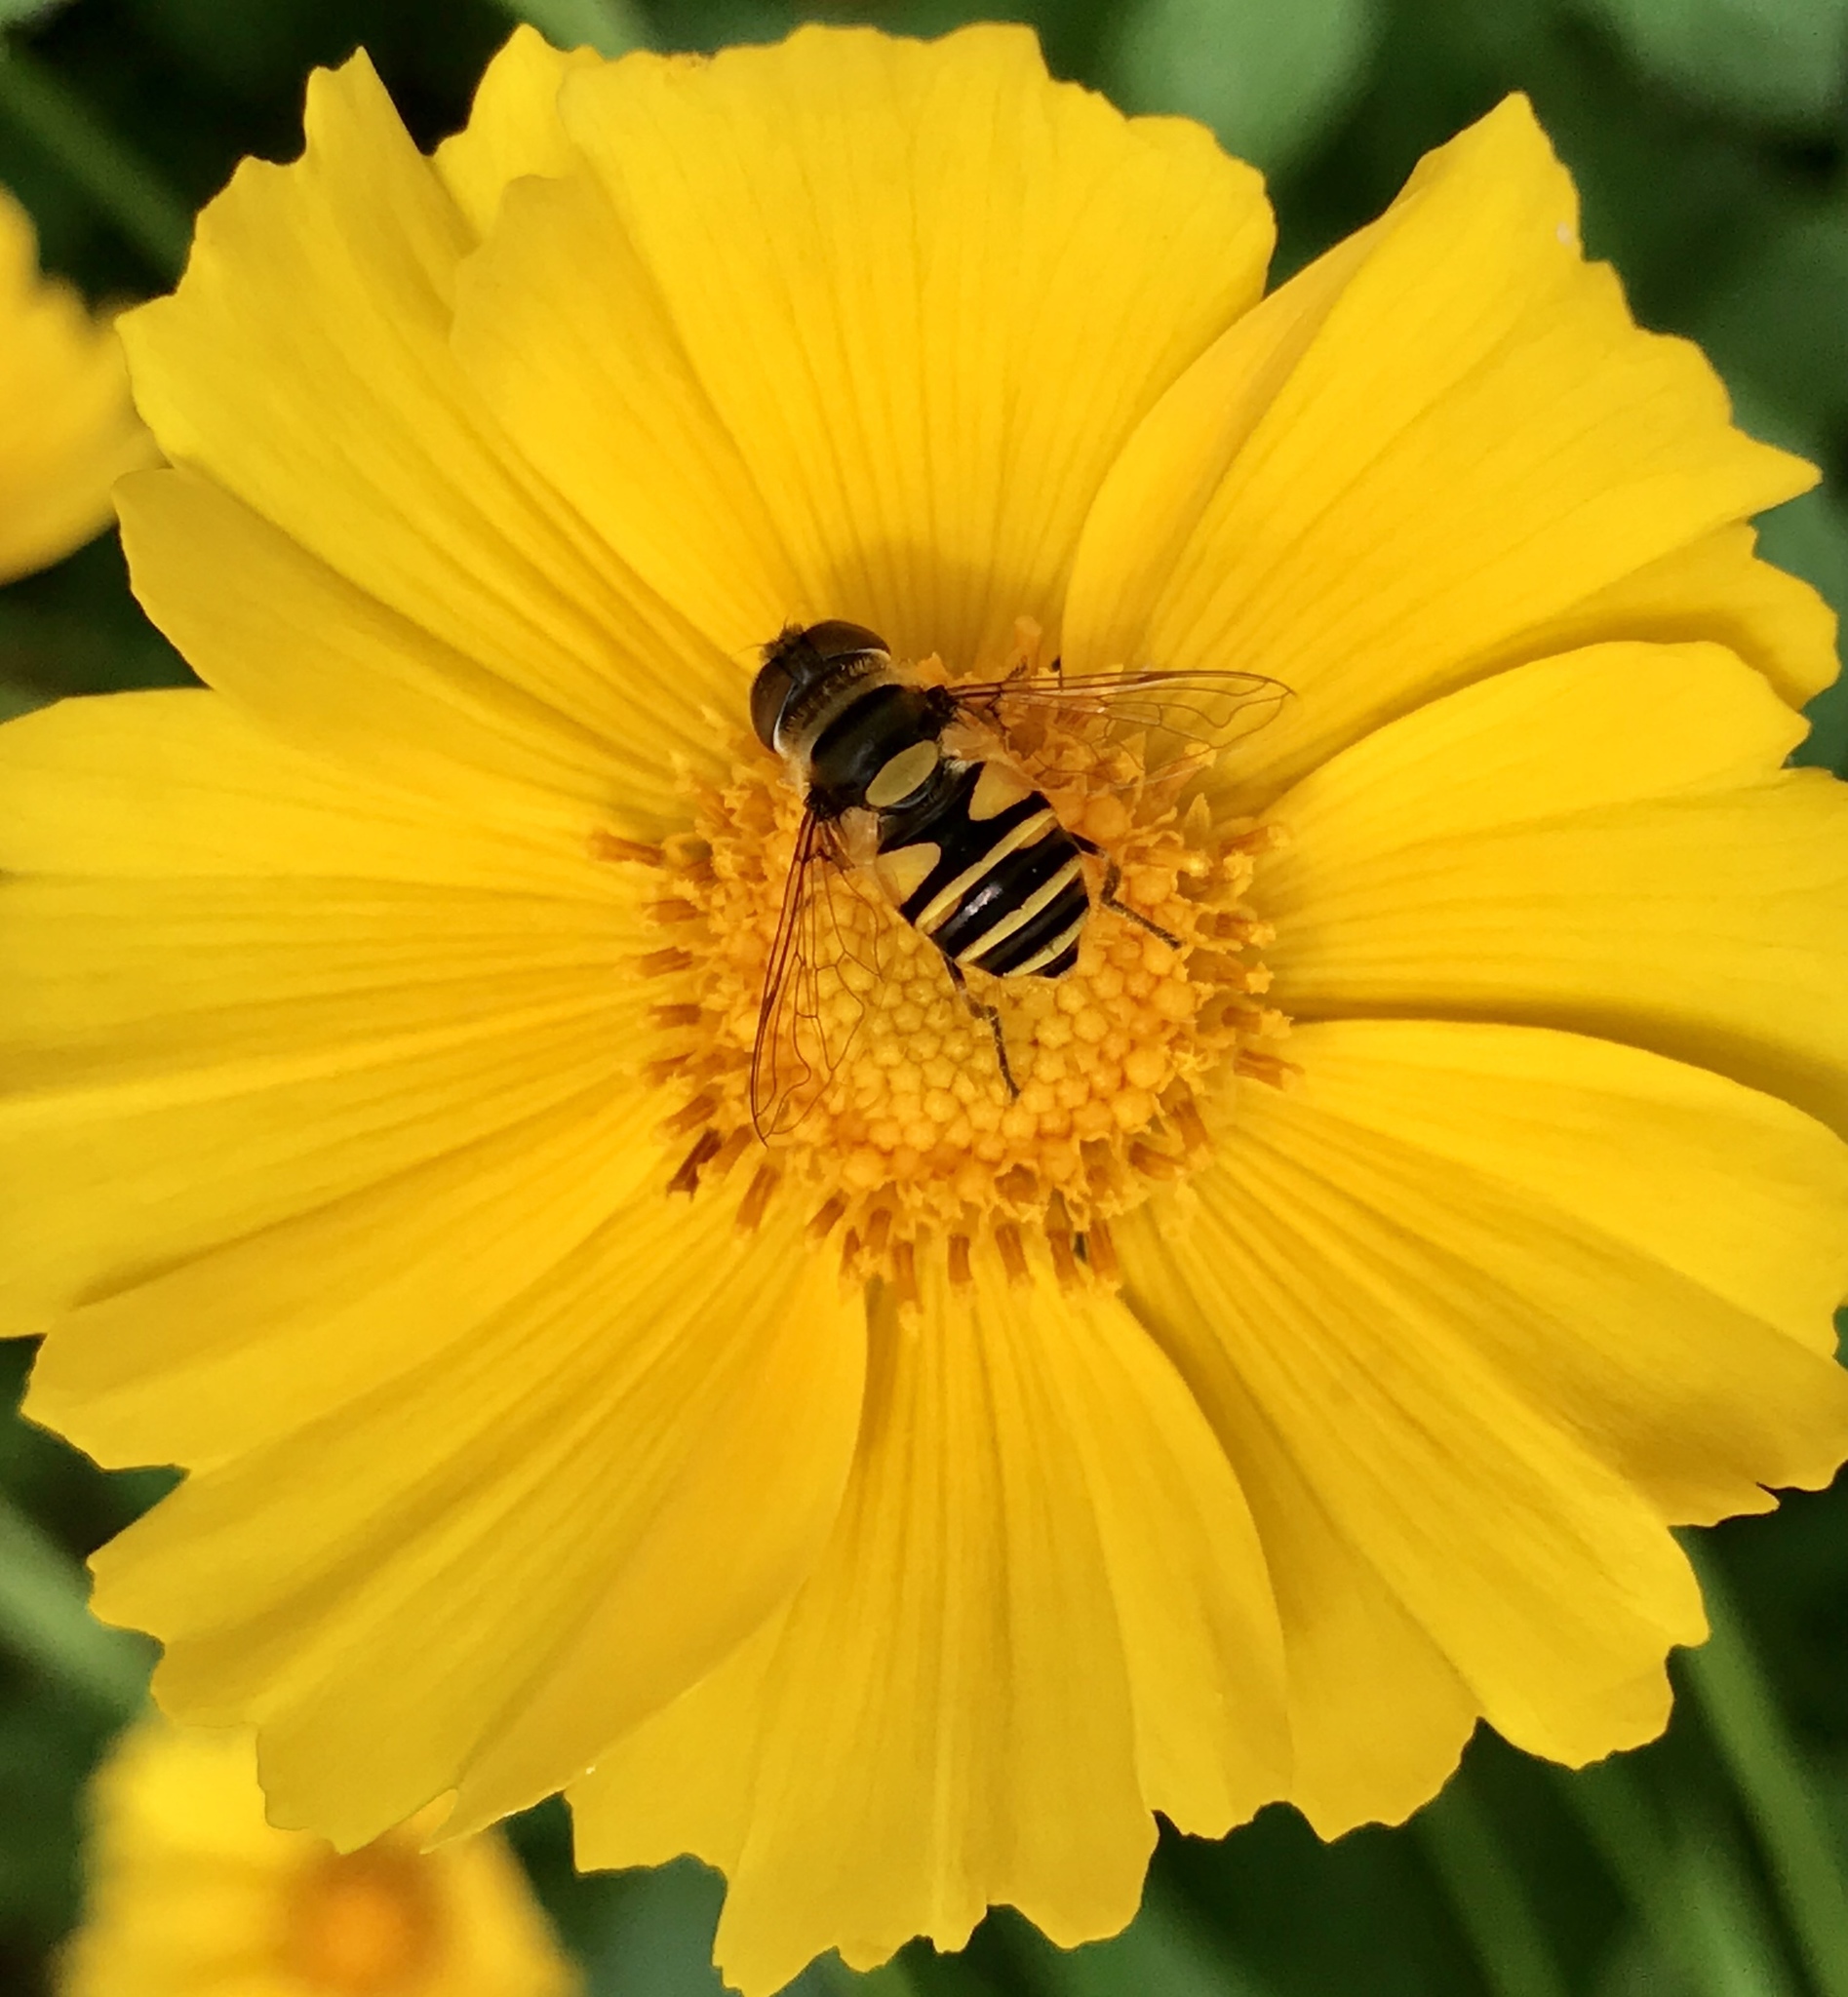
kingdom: Animalia
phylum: Arthropoda
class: Insecta
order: Diptera
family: Syrphidae
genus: Eristalis
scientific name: Eristalis transversa
